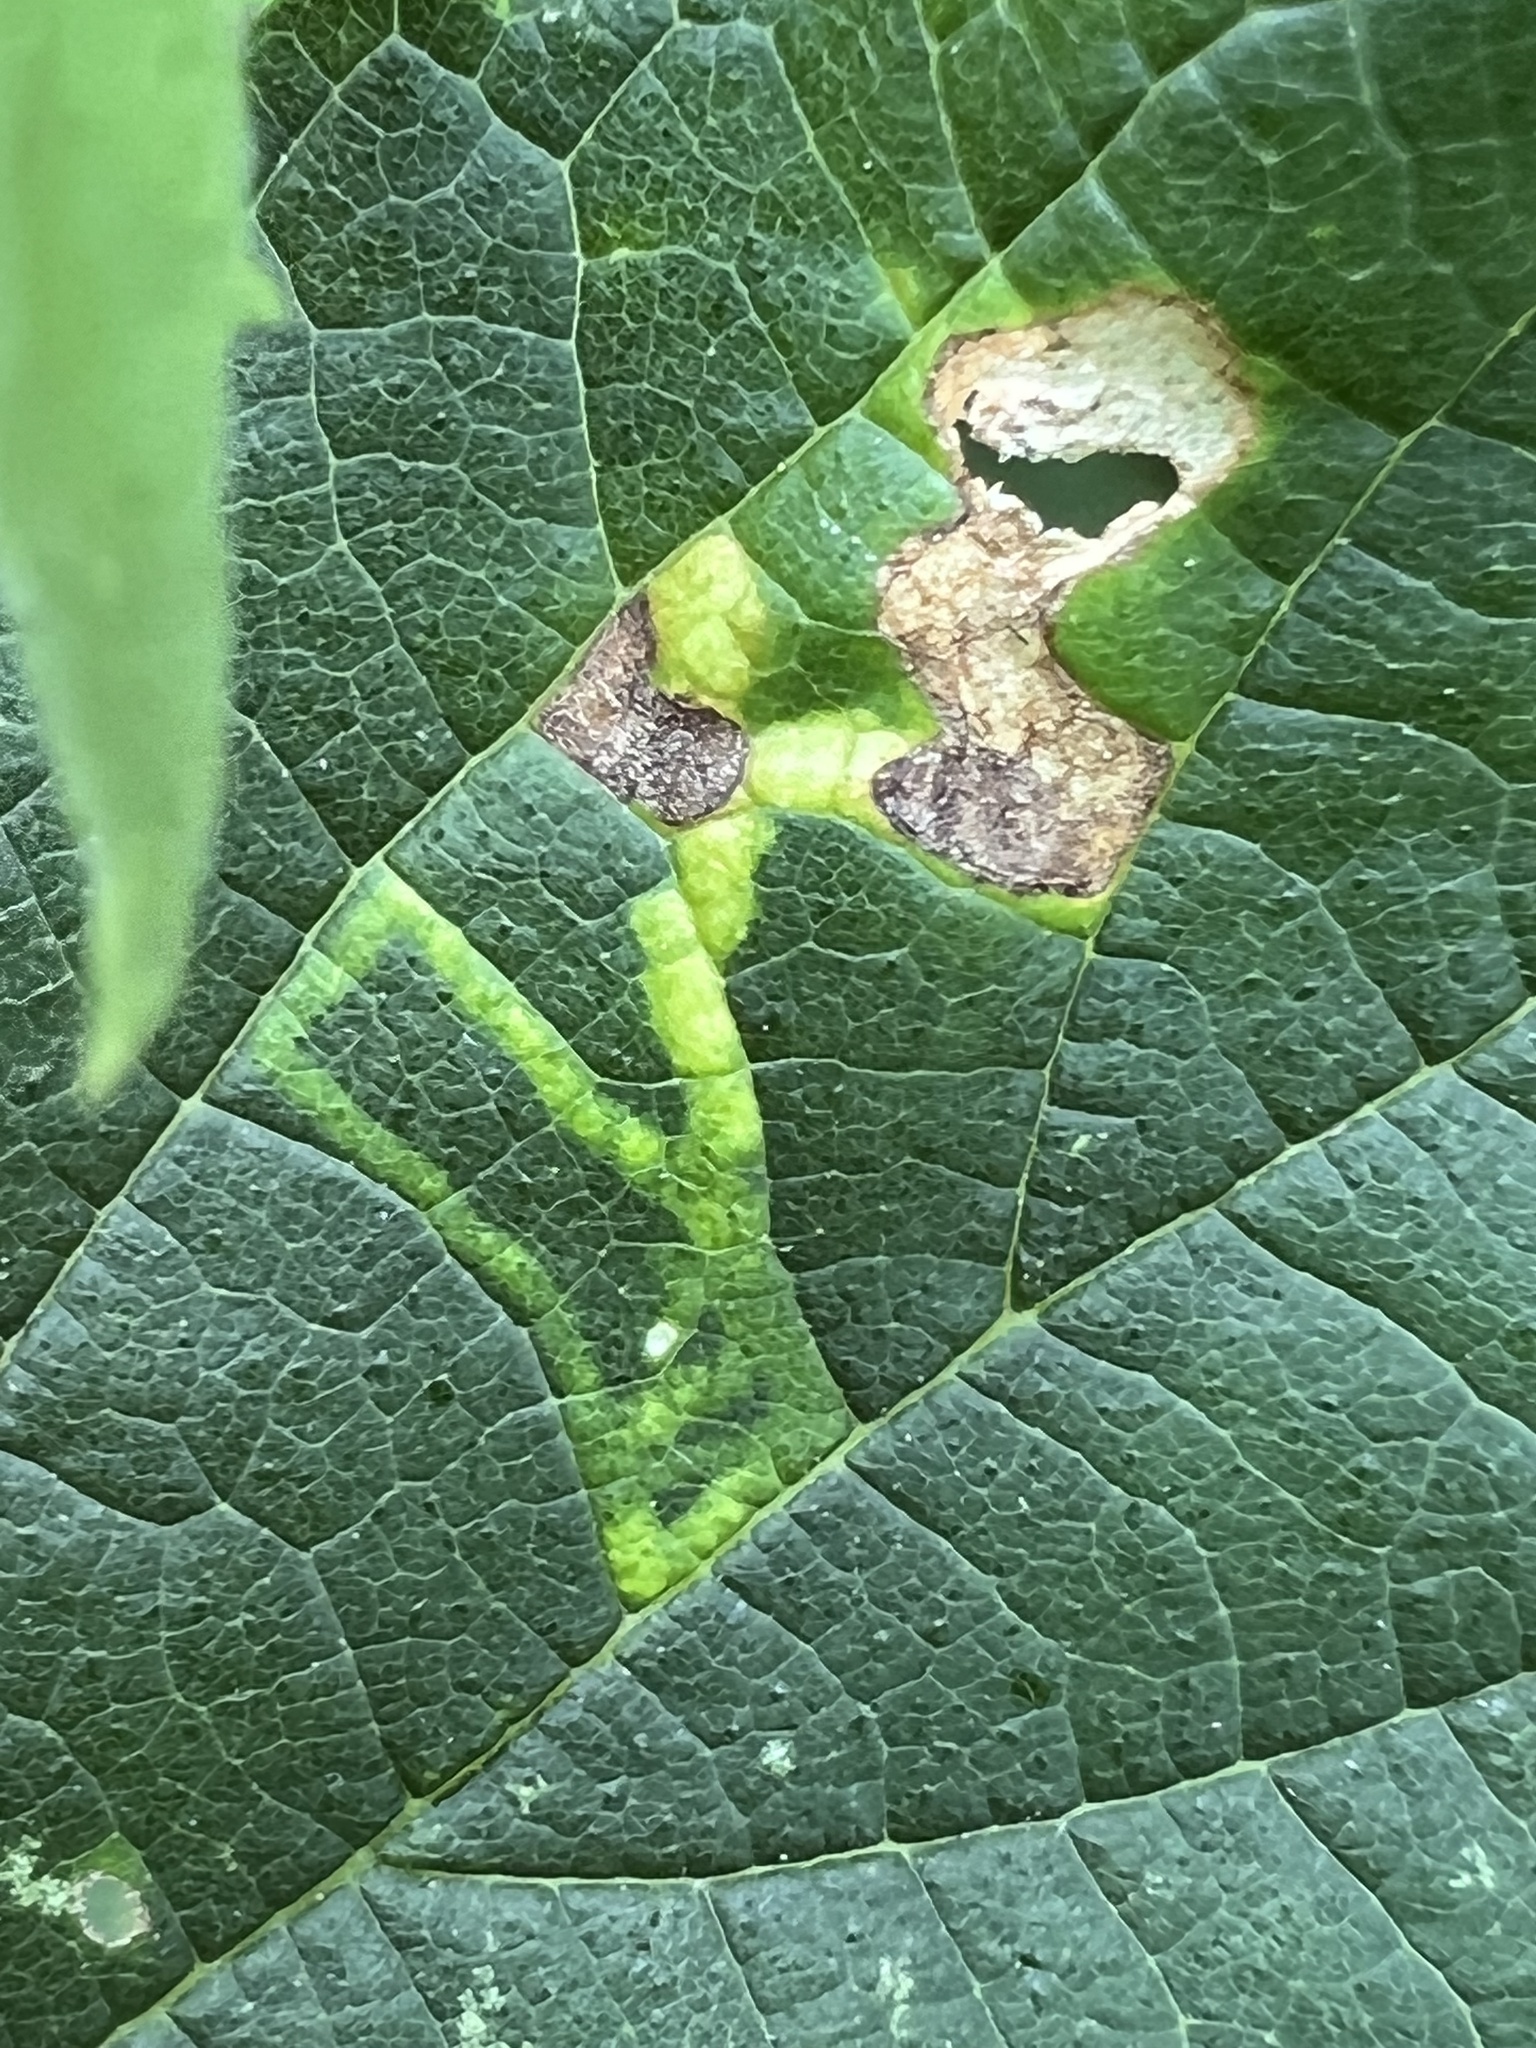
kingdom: Animalia
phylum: Arthropoda
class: Insecta
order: Diptera
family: Agromyzidae
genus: Agromyza
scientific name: Agromyza aristata
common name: Elm agromyzid leafminer
